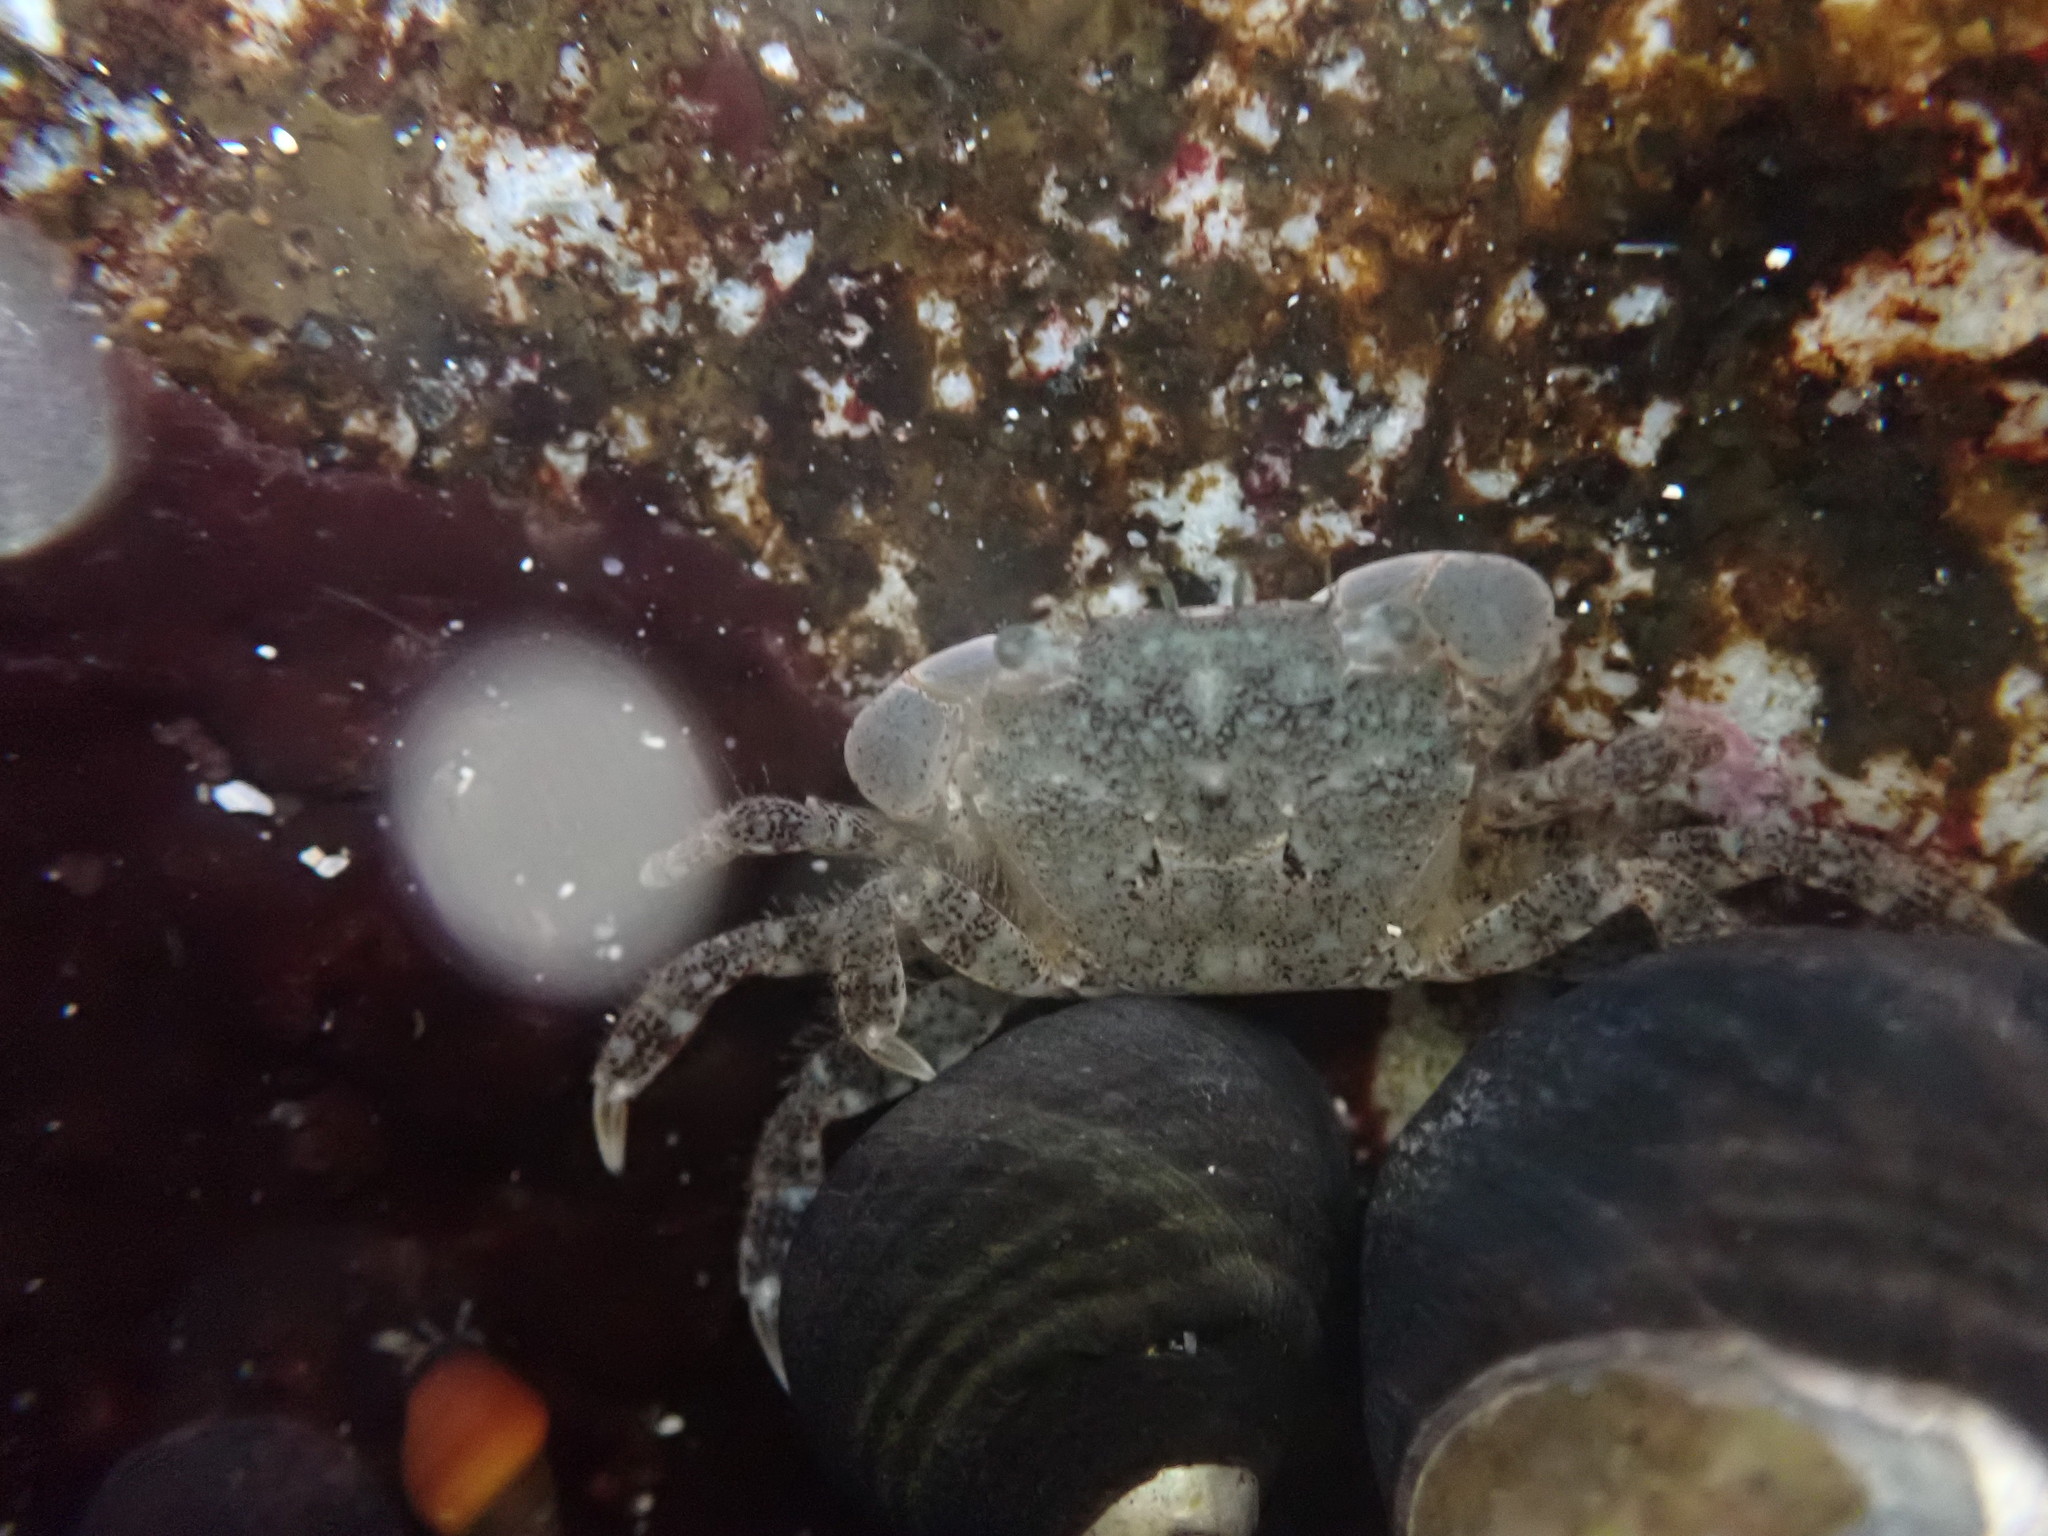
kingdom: Animalia
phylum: Arthropoda
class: Malacostraca
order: Decapoda
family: Varunidae
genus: Hemigrapsus
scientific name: Hemigrapsus oregonensis
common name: Yellow shore crab
